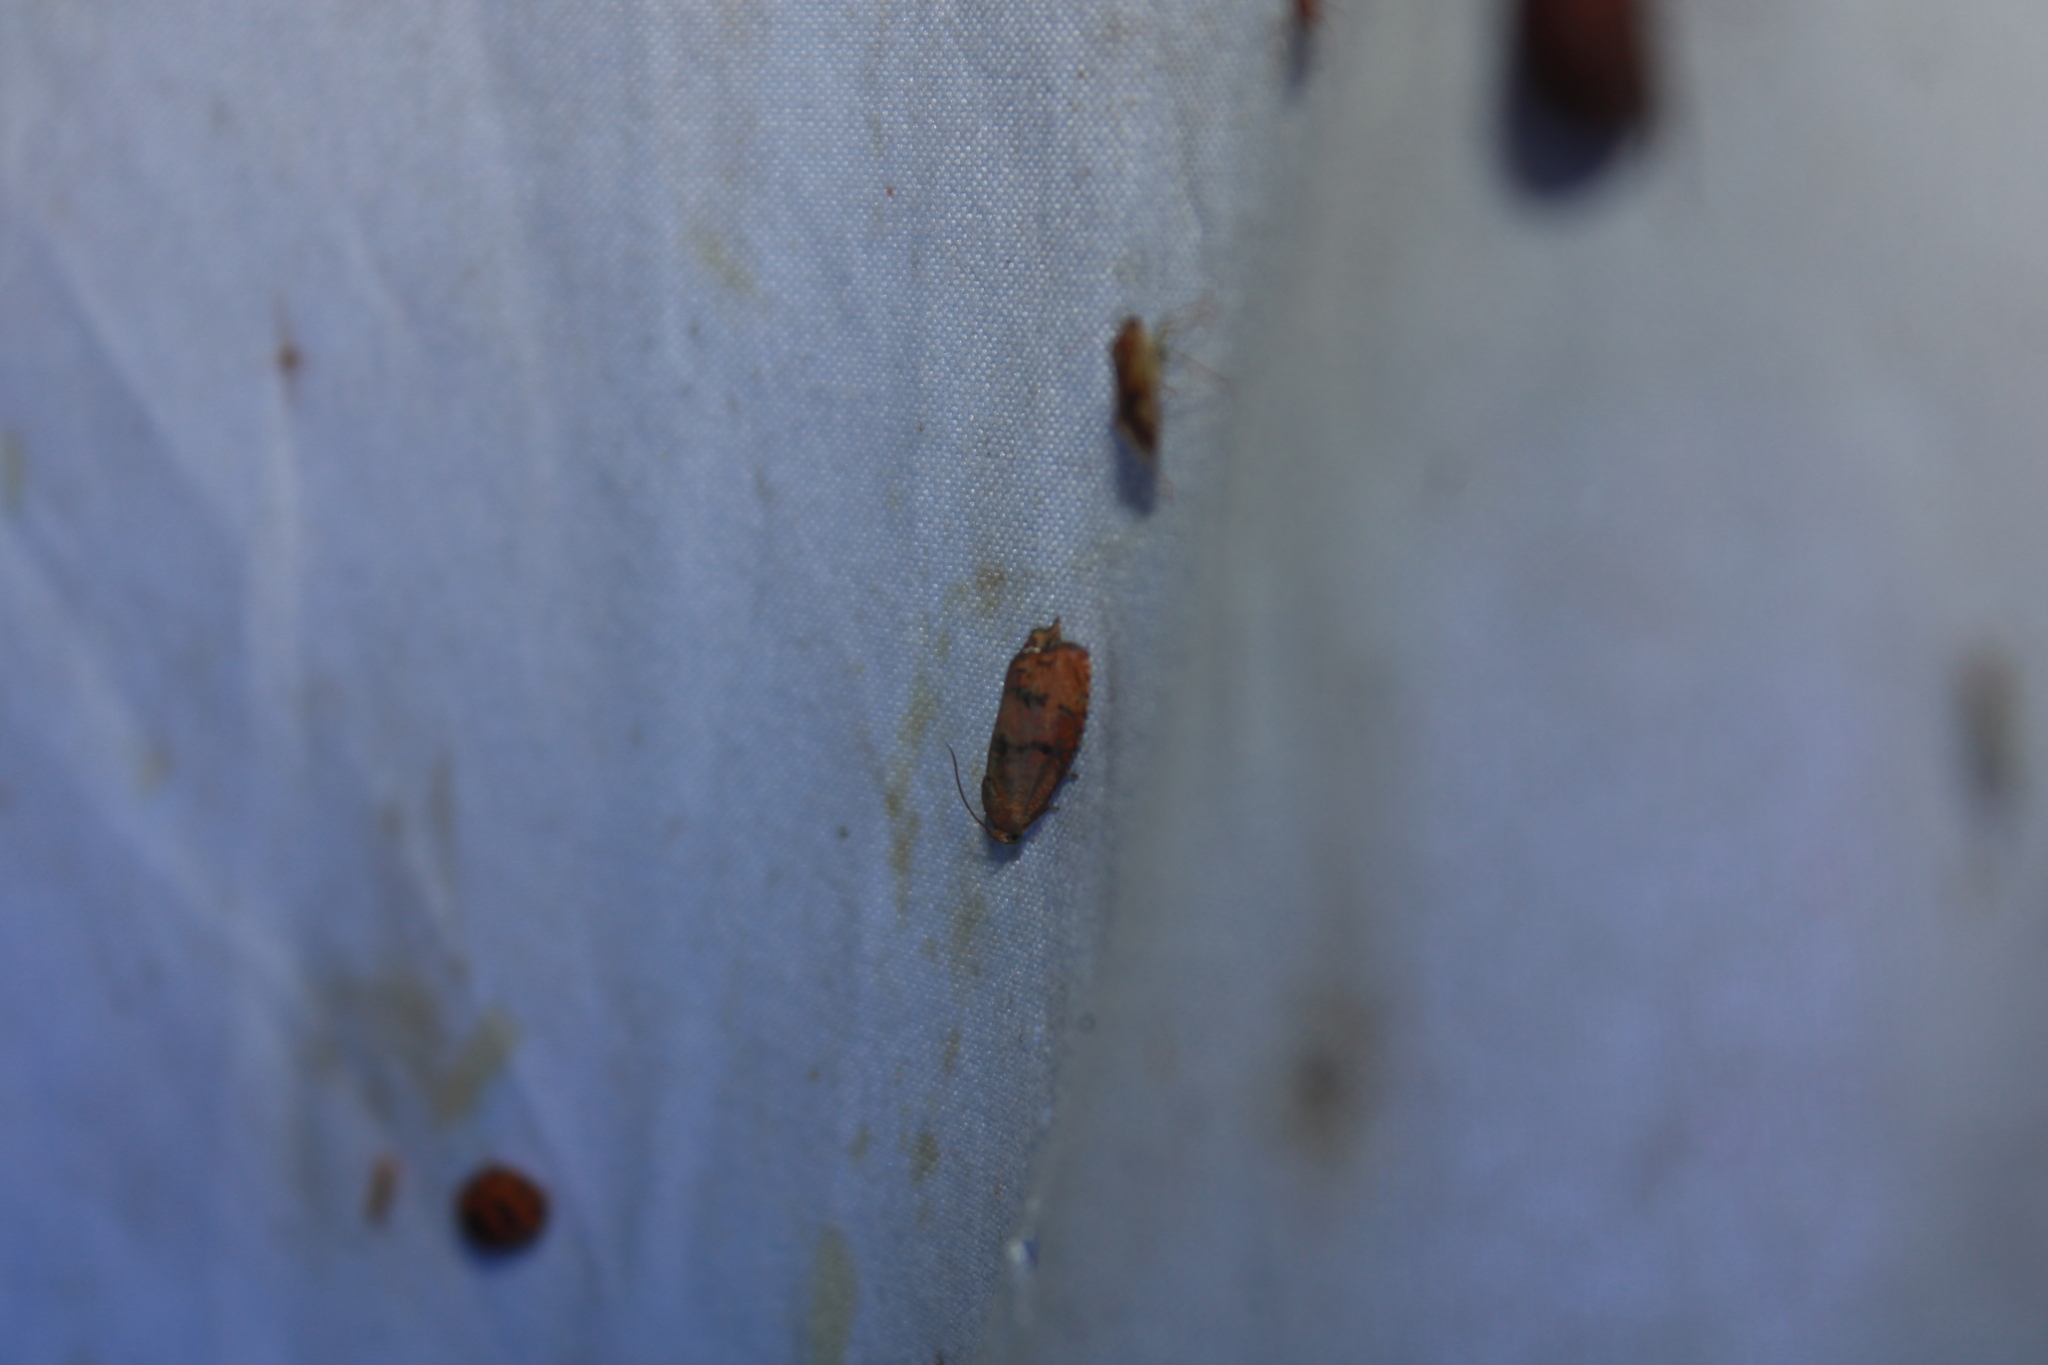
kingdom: Animalia
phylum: Arthropoda
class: Insecta
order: Lepidoptera
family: Tortricidae
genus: Cydia
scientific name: Cydia latiferreana
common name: Filbertworm moth
